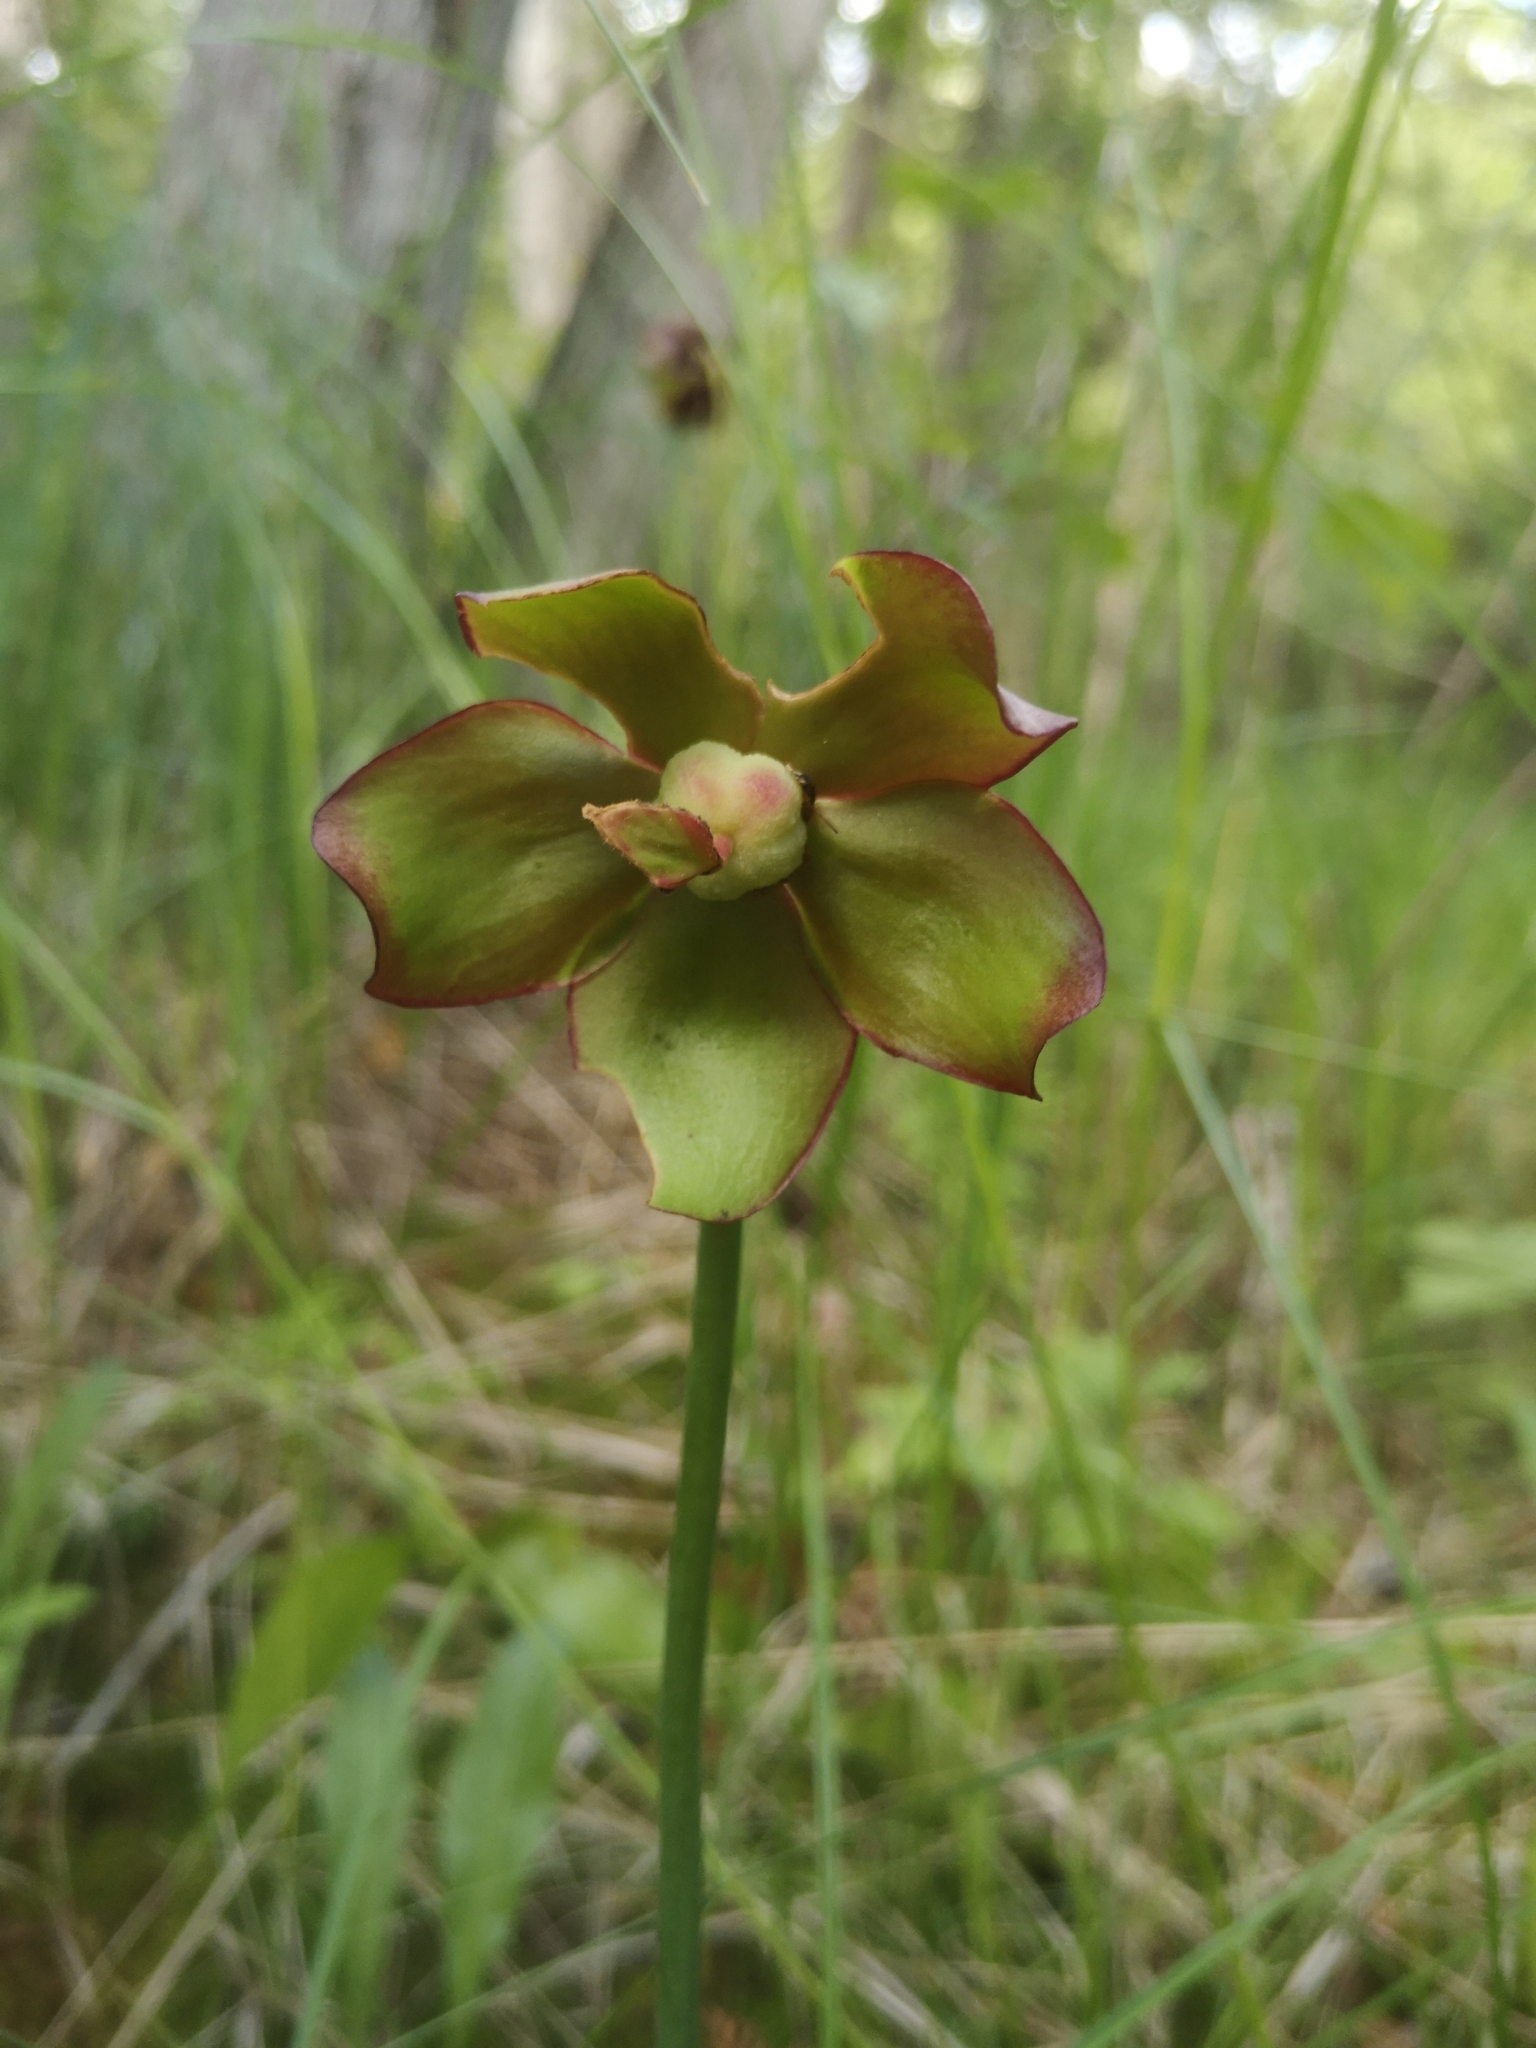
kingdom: Plantae
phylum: Tracheophyta
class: Magnoliopsida
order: Ericales
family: Sarraceniaceae
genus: Sarracenia
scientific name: Sarracenia purpurea
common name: Pitcherplant
